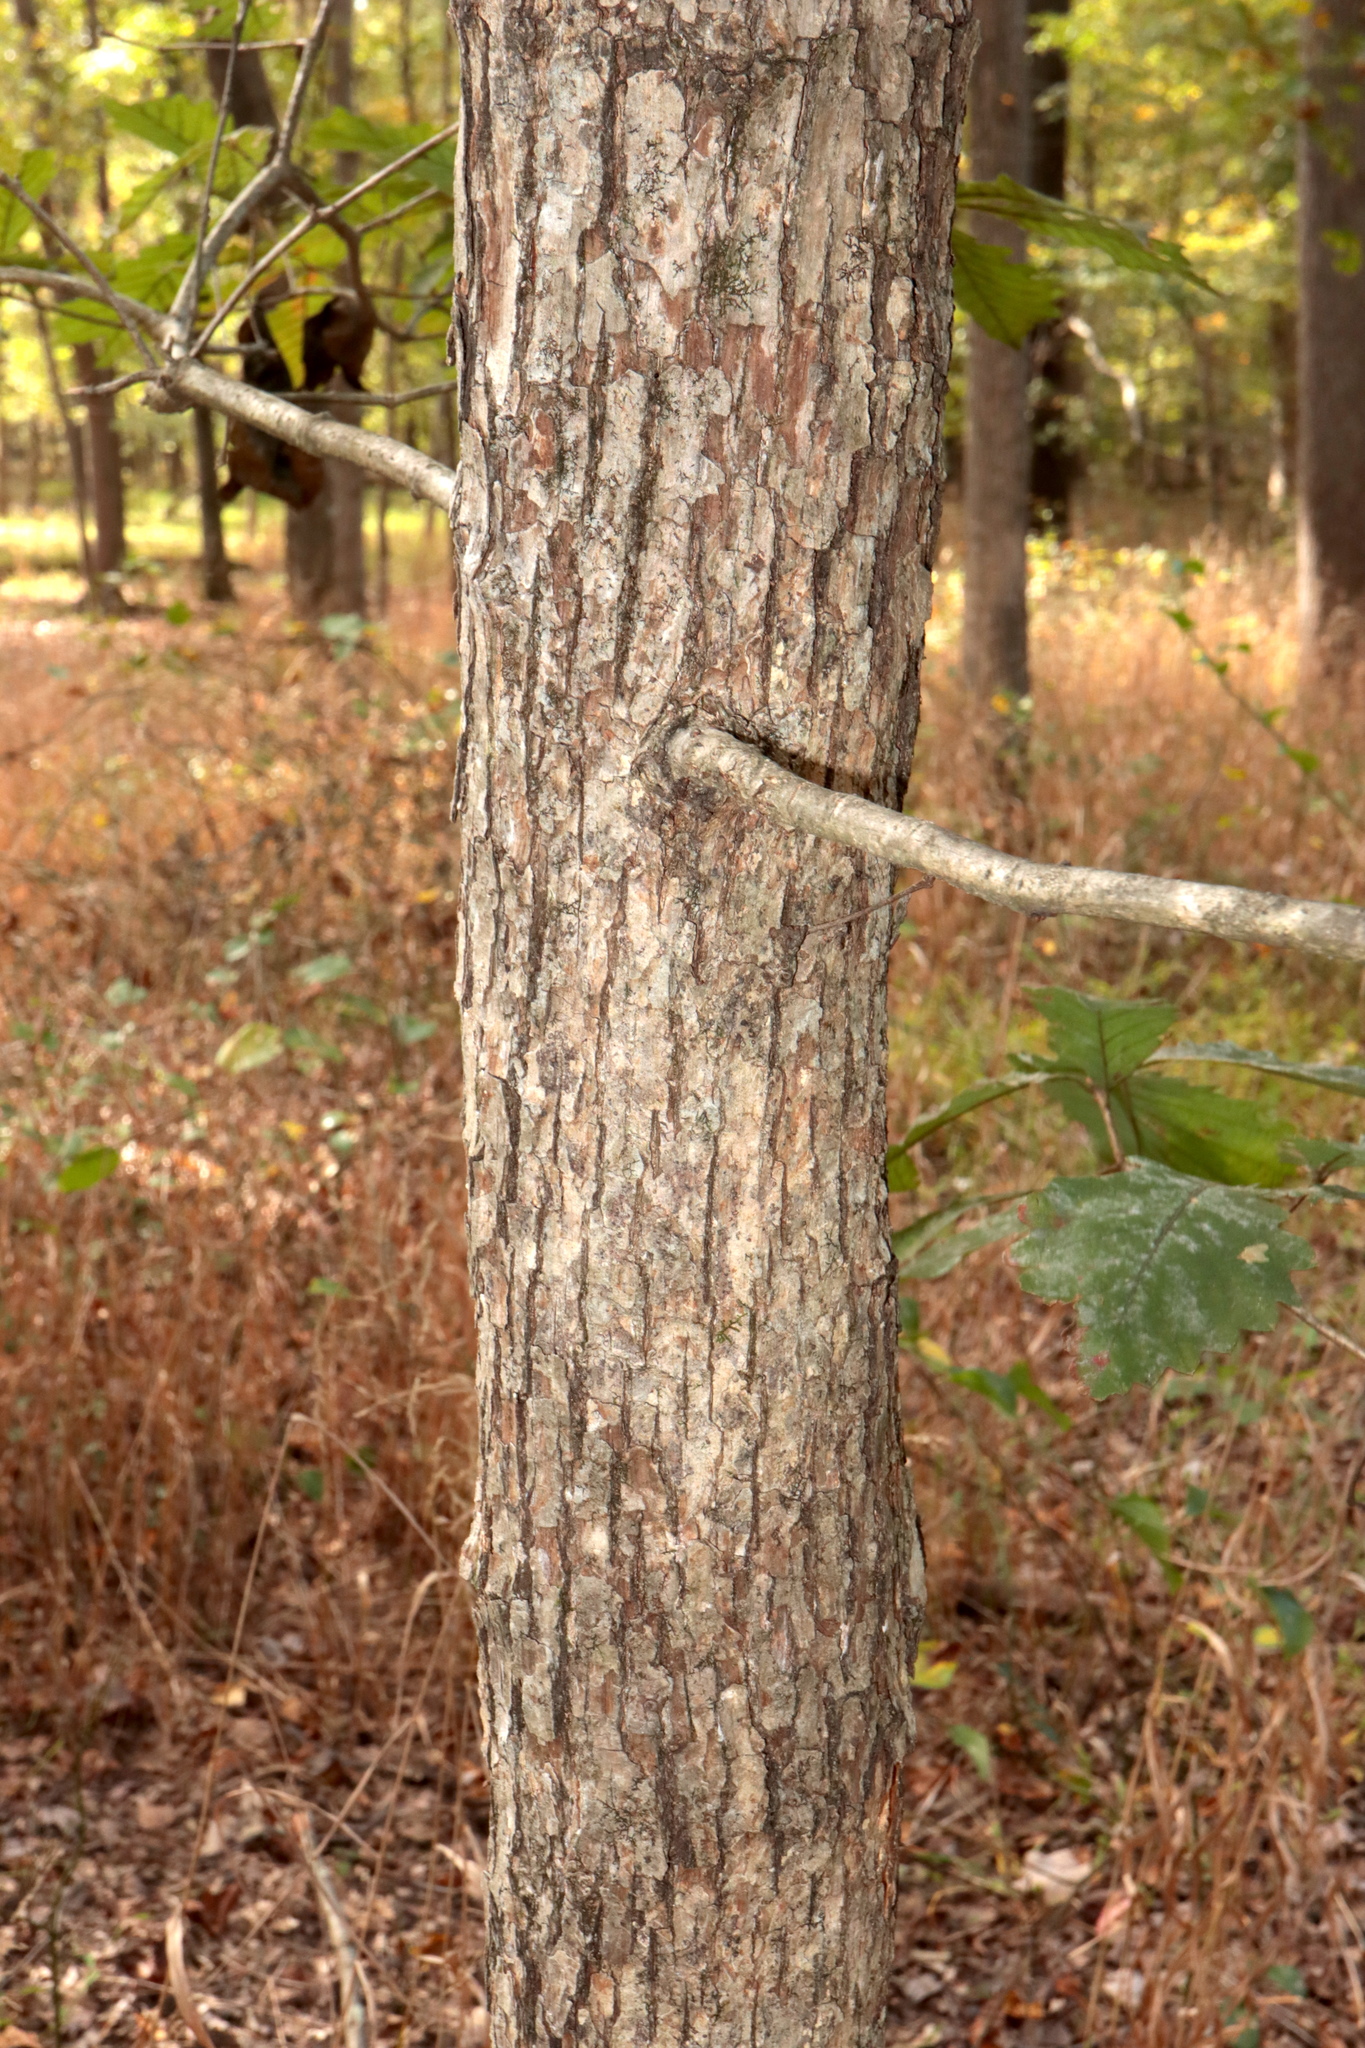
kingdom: Plantae
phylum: Tracheophyta
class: Magnoliopsida
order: Fagales
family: Fagaceae
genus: Quercus
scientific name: Quercus michauxii
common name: Swamp chestnut oak
